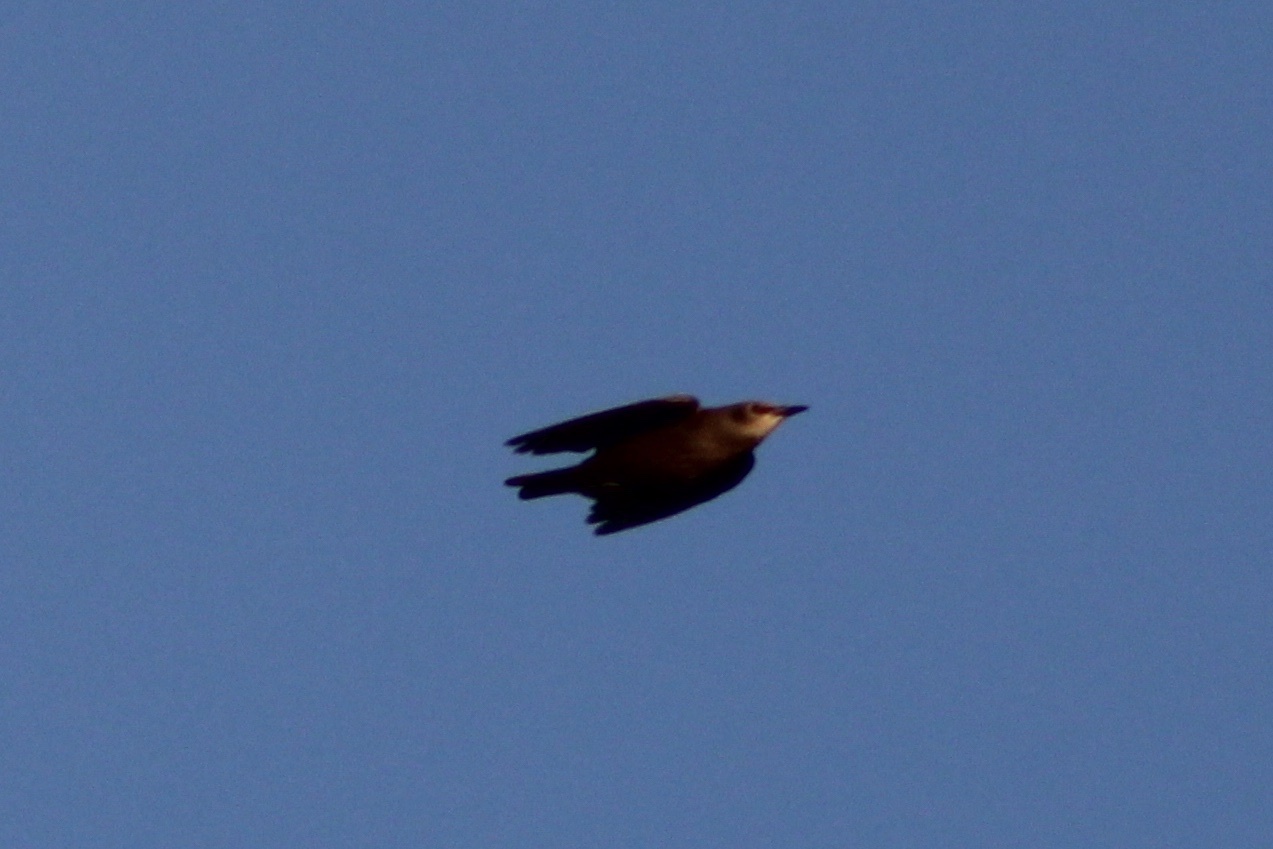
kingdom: Animalia
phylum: Chordata
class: Aves
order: Passeriformes
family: Sturnidae
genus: Sturnus
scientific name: Sturnus vulgaris
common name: Common starling
